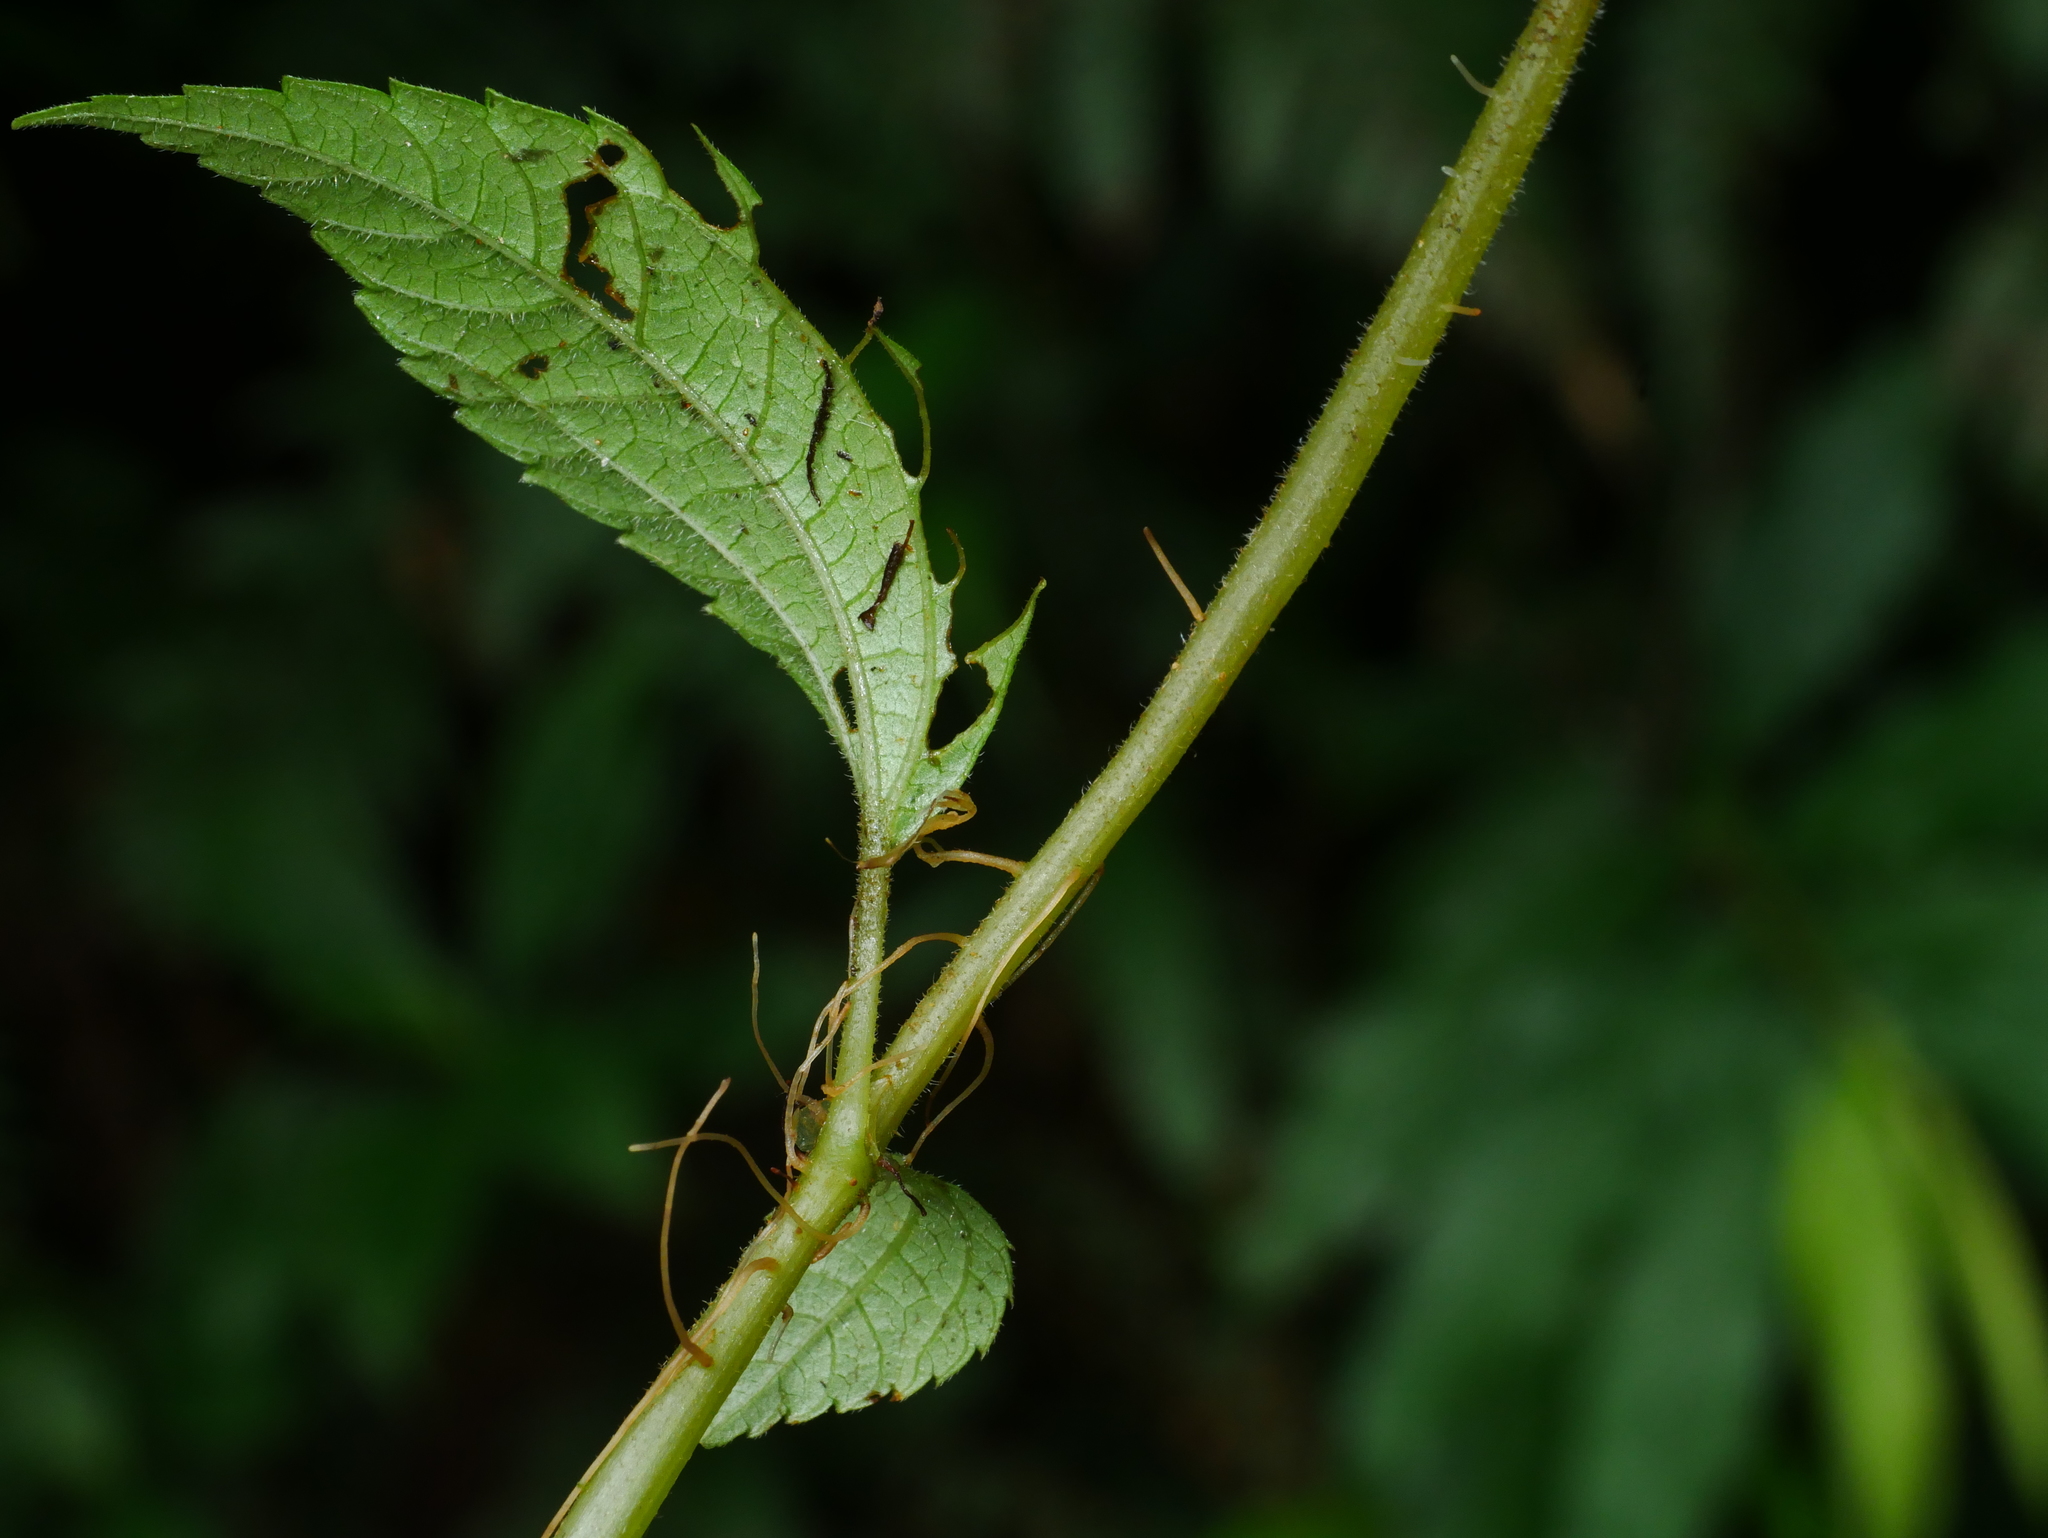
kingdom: Plantae
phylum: Tracheophyta
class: Magnoliopsida
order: Rosales
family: Urticaceae
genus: Pilea
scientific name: Pilea brevicornuta
